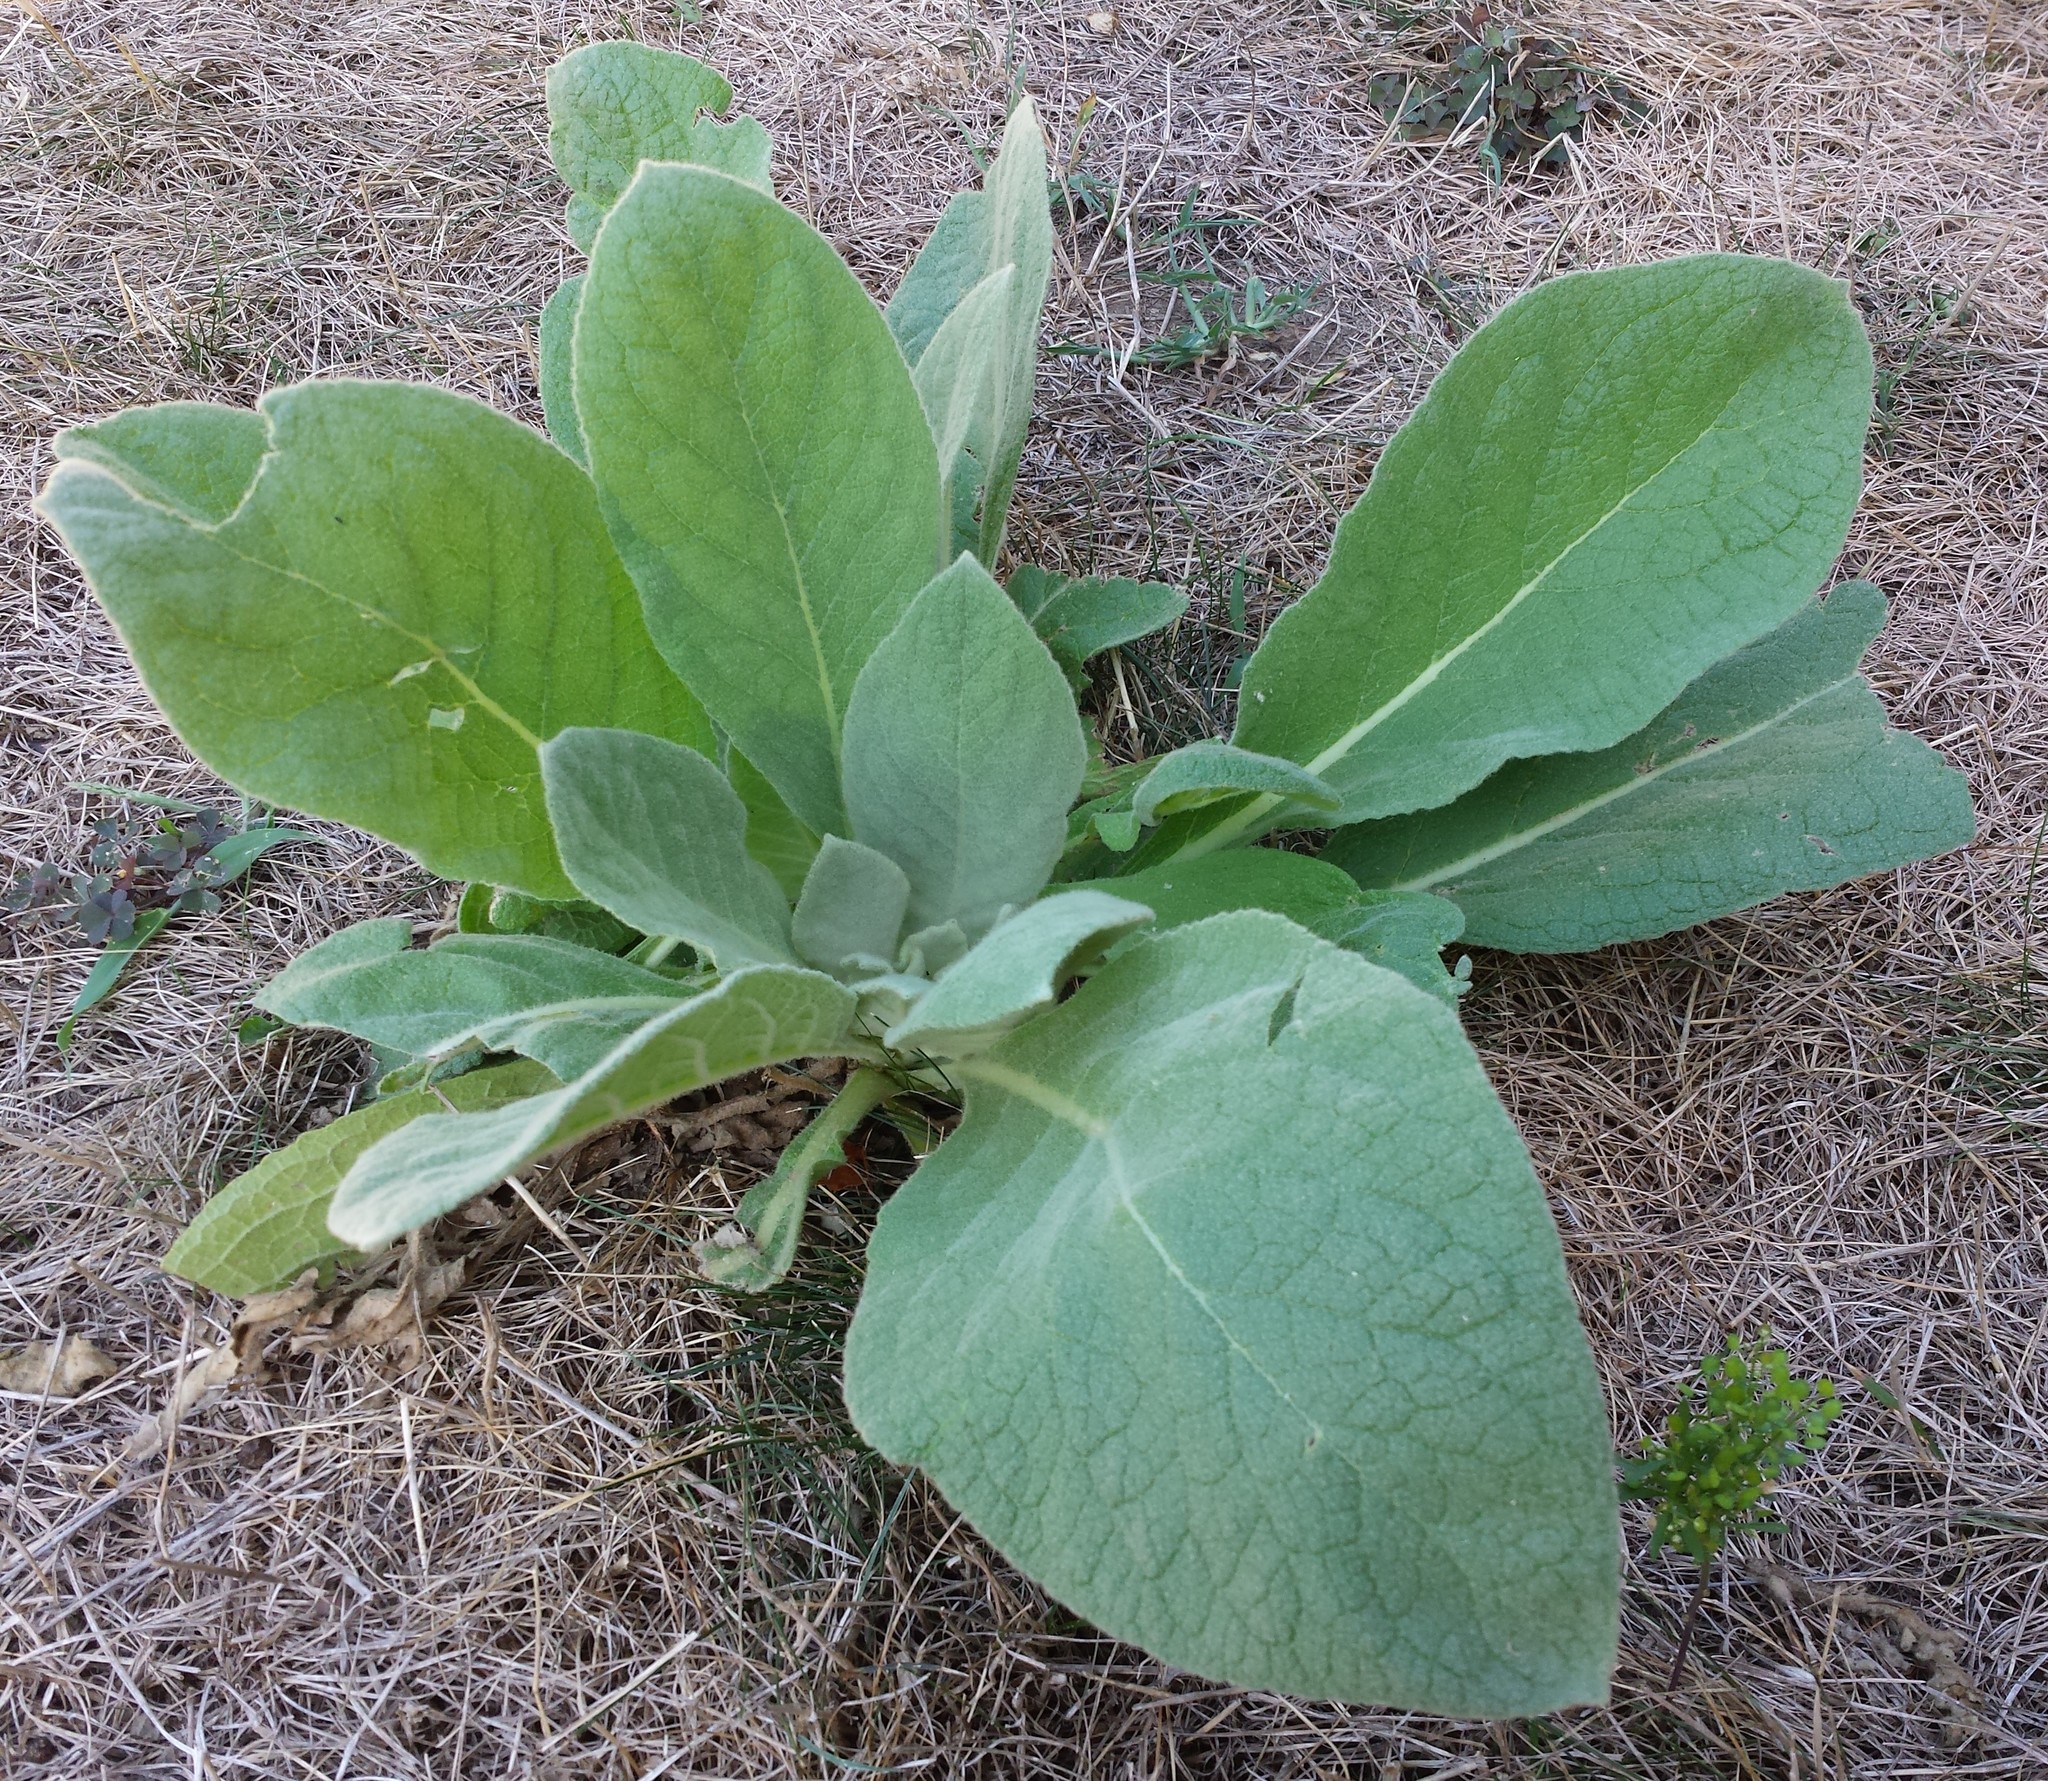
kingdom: Plantae
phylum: Tracheophyta
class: Magnoliopsida
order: Lamiales
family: Scrophulariaceae
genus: Verbascum
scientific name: Verbascum thapsus
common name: Common mullein
